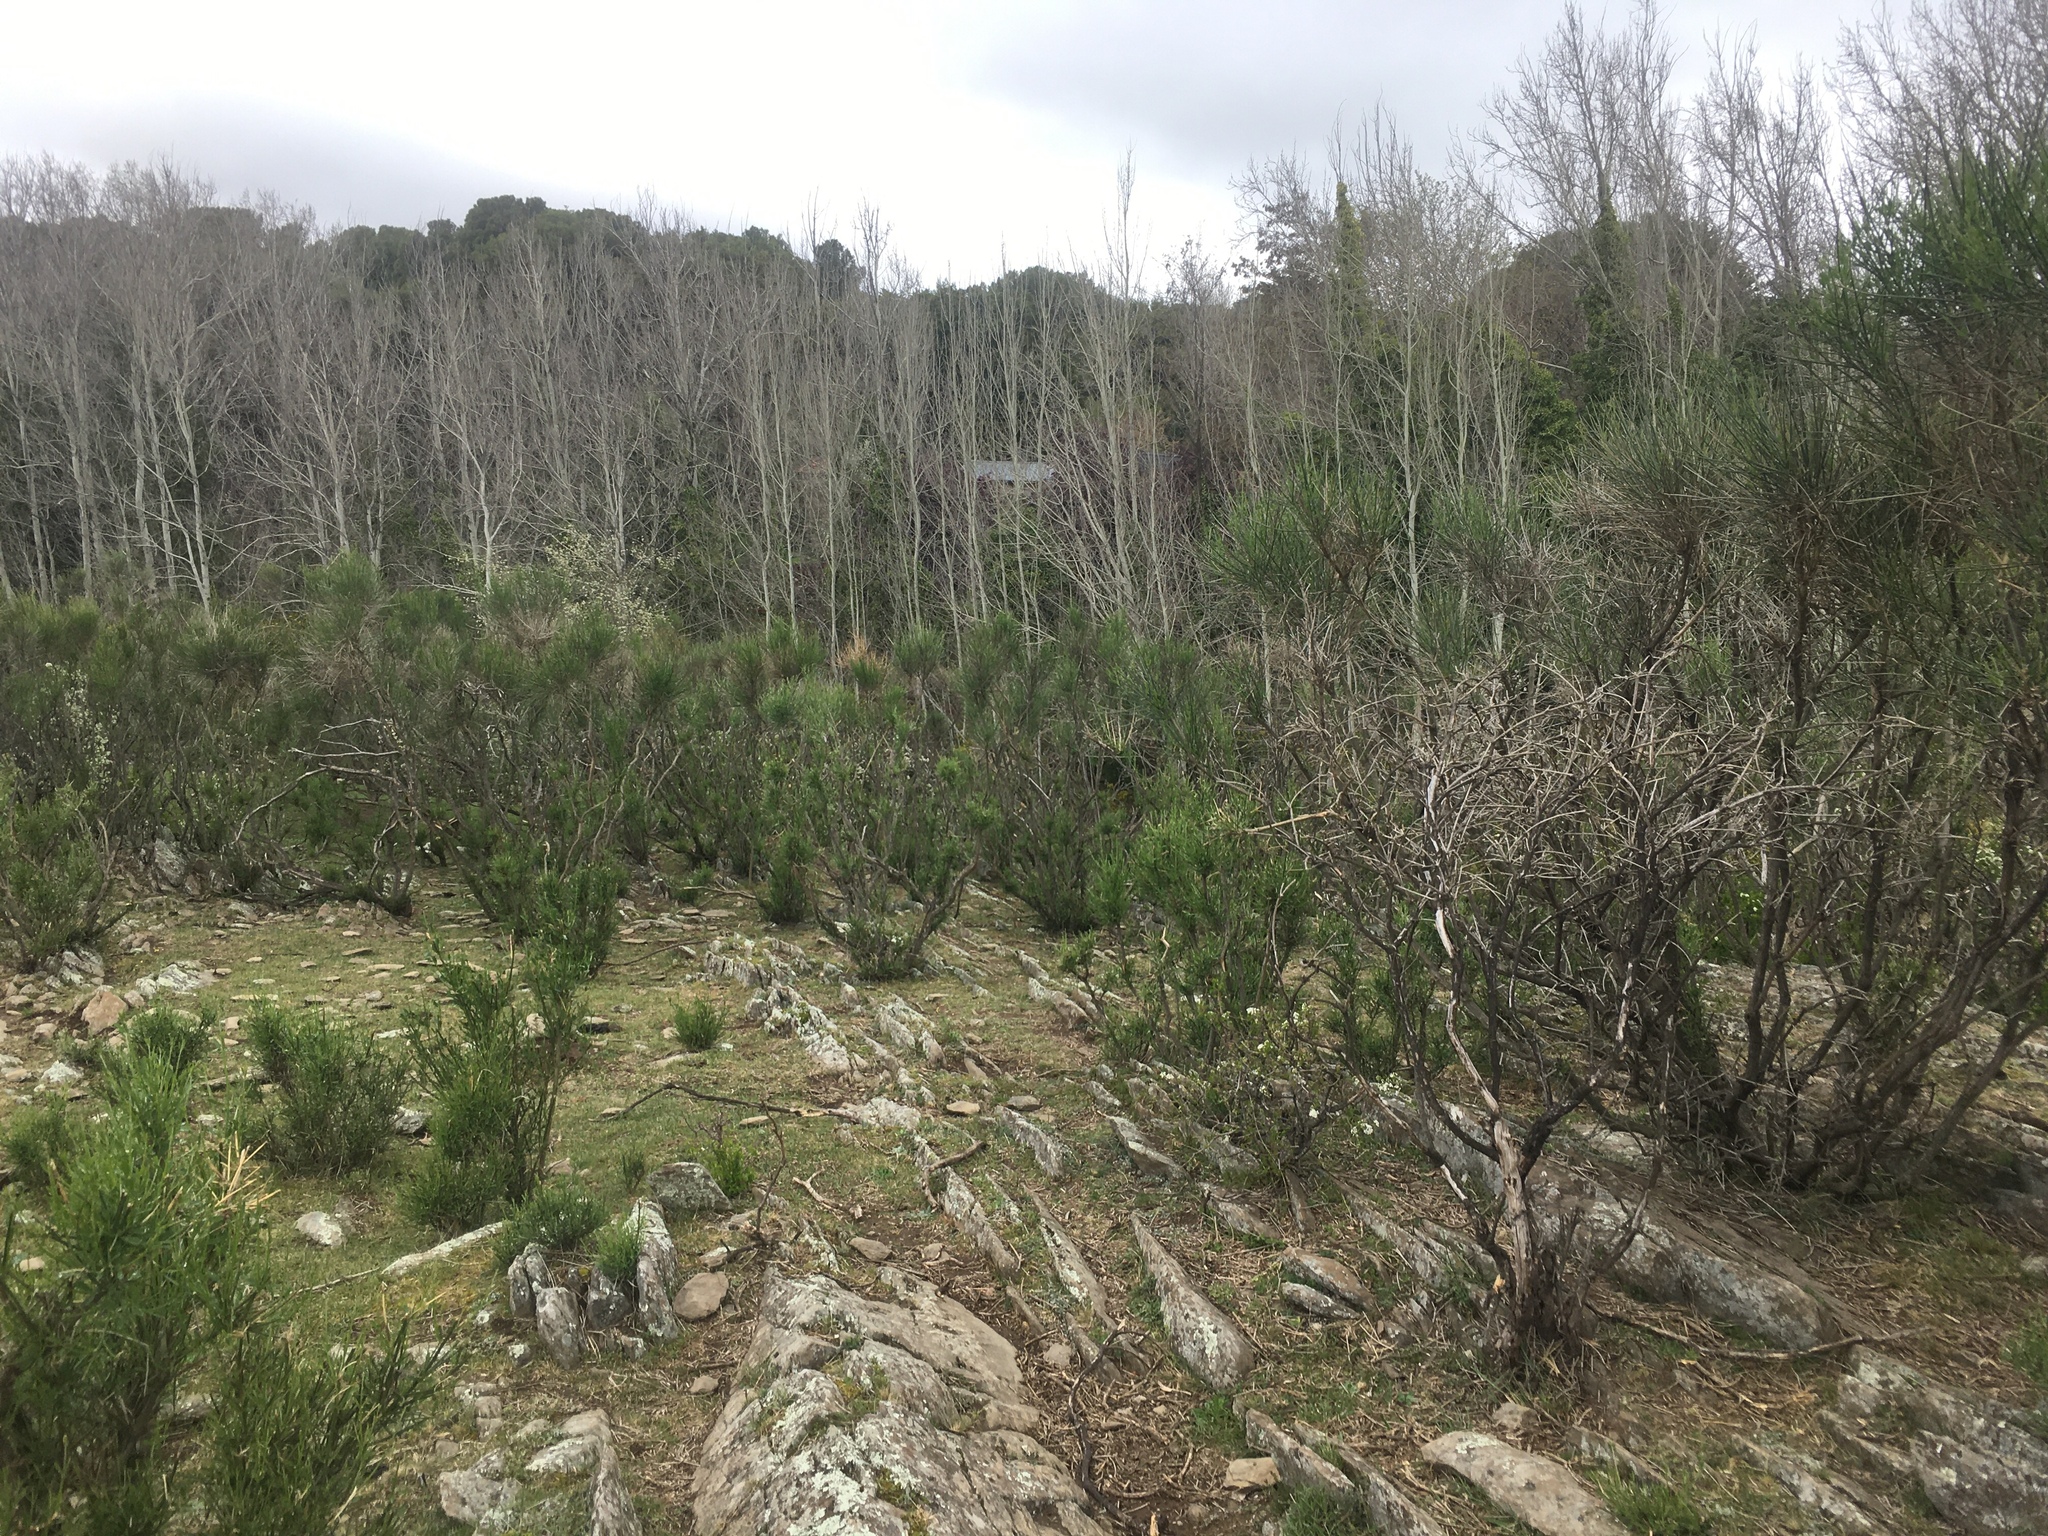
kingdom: Plantae
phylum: Tracheophyta
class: Magnoliopsida
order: Fabales
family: Fabaceae
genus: Spartium
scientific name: Spartium junceum
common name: Spanish broom
